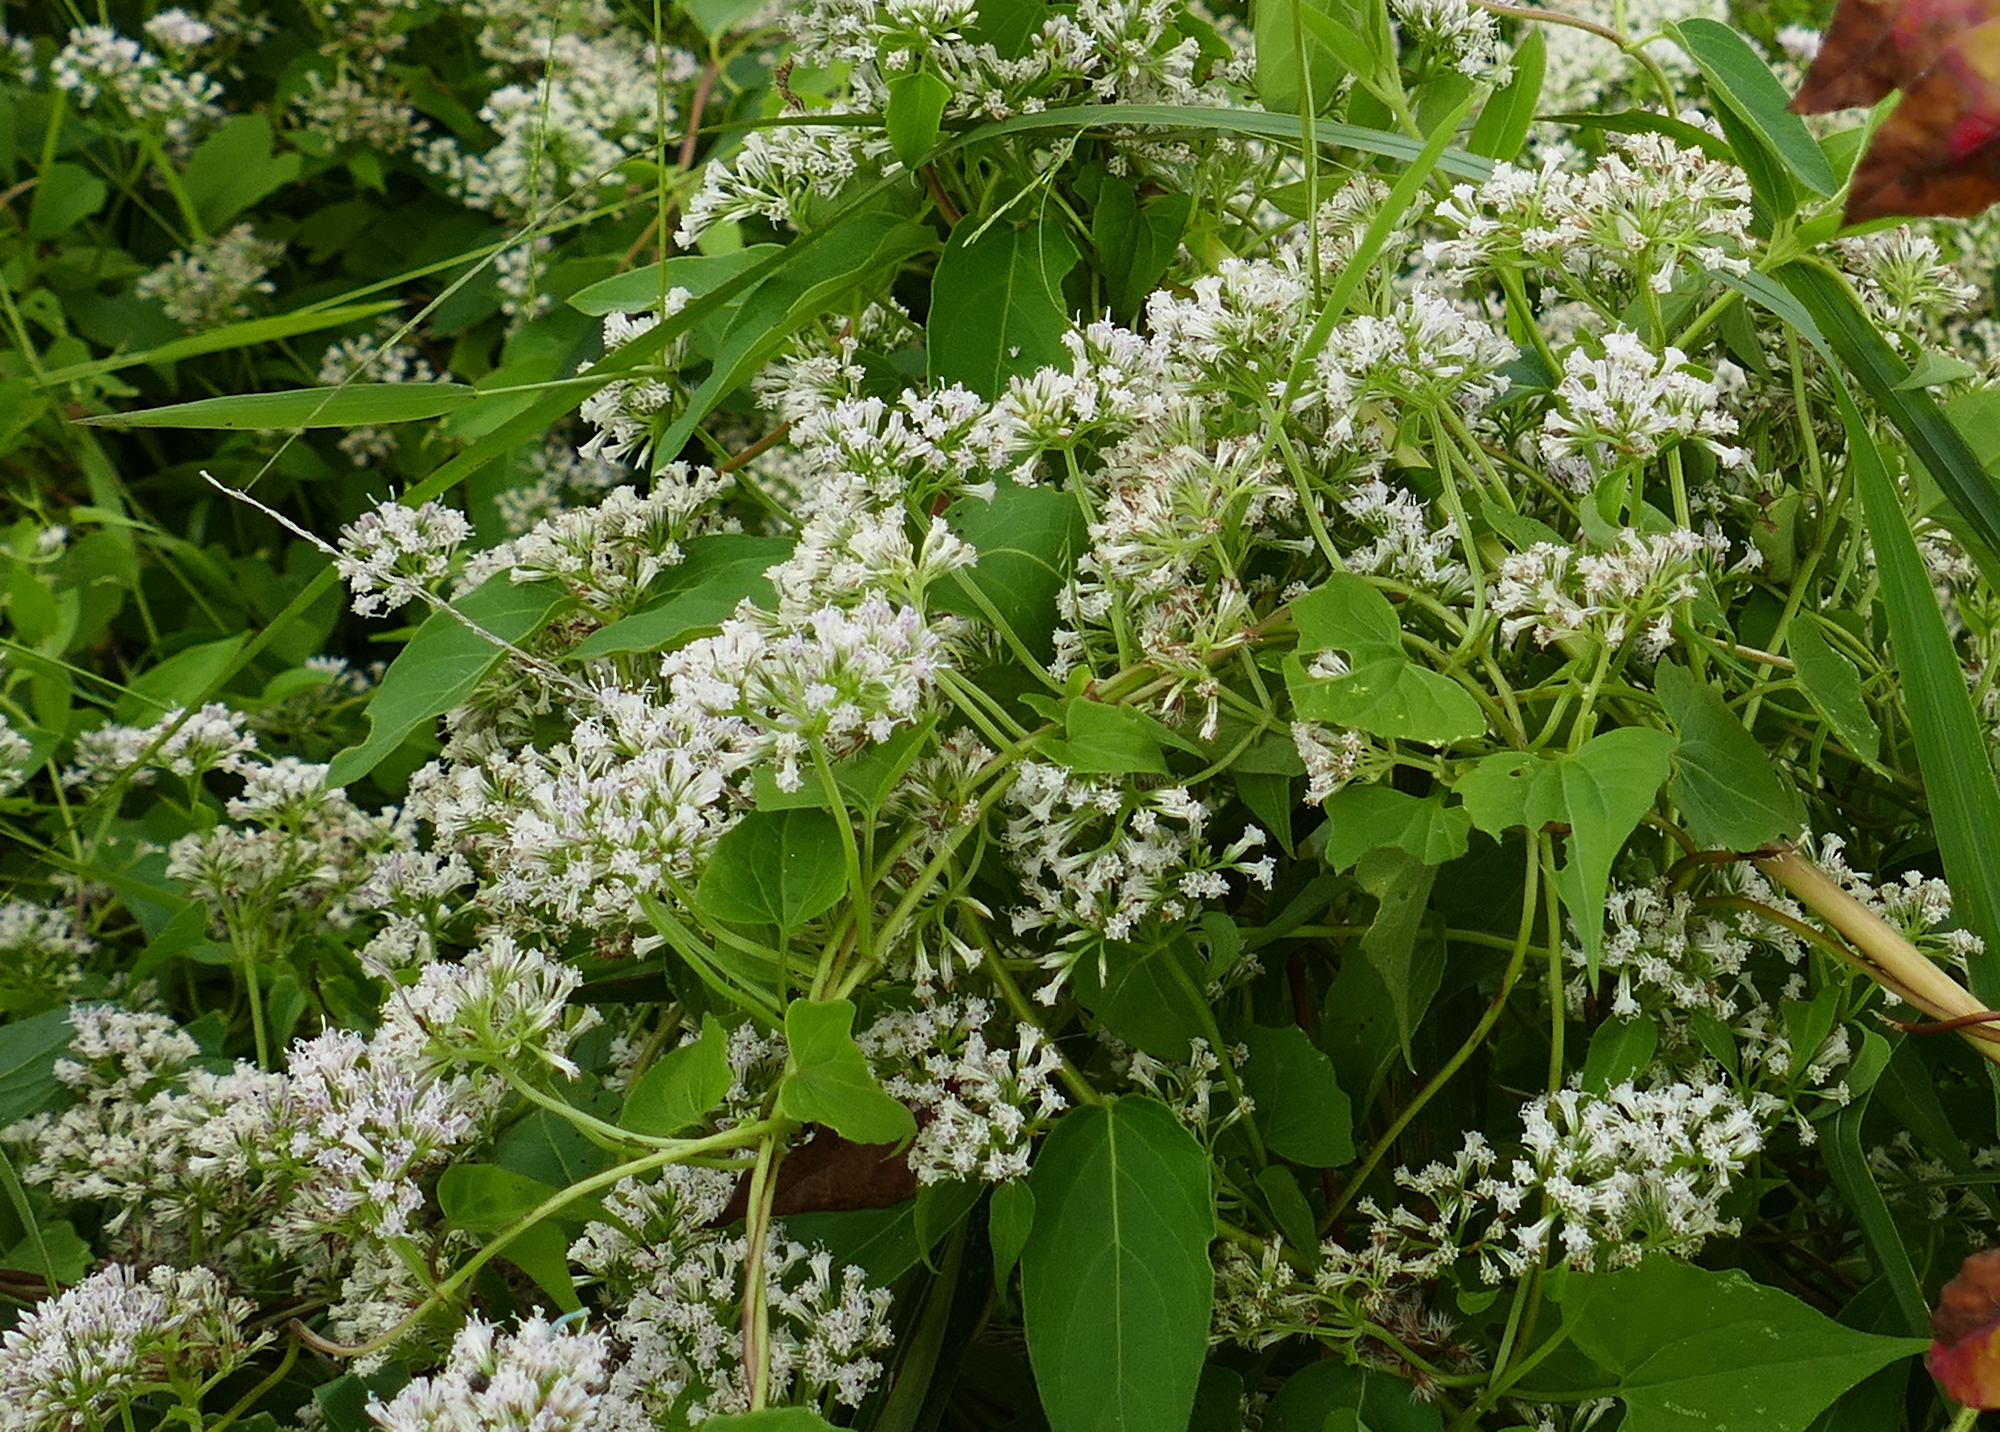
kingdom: Plantae
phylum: Tracheophyta
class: Magnoliopsida
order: Asterales
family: Asteraceae
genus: Mikania
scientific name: Mikania scandens
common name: Climbing hempvine
